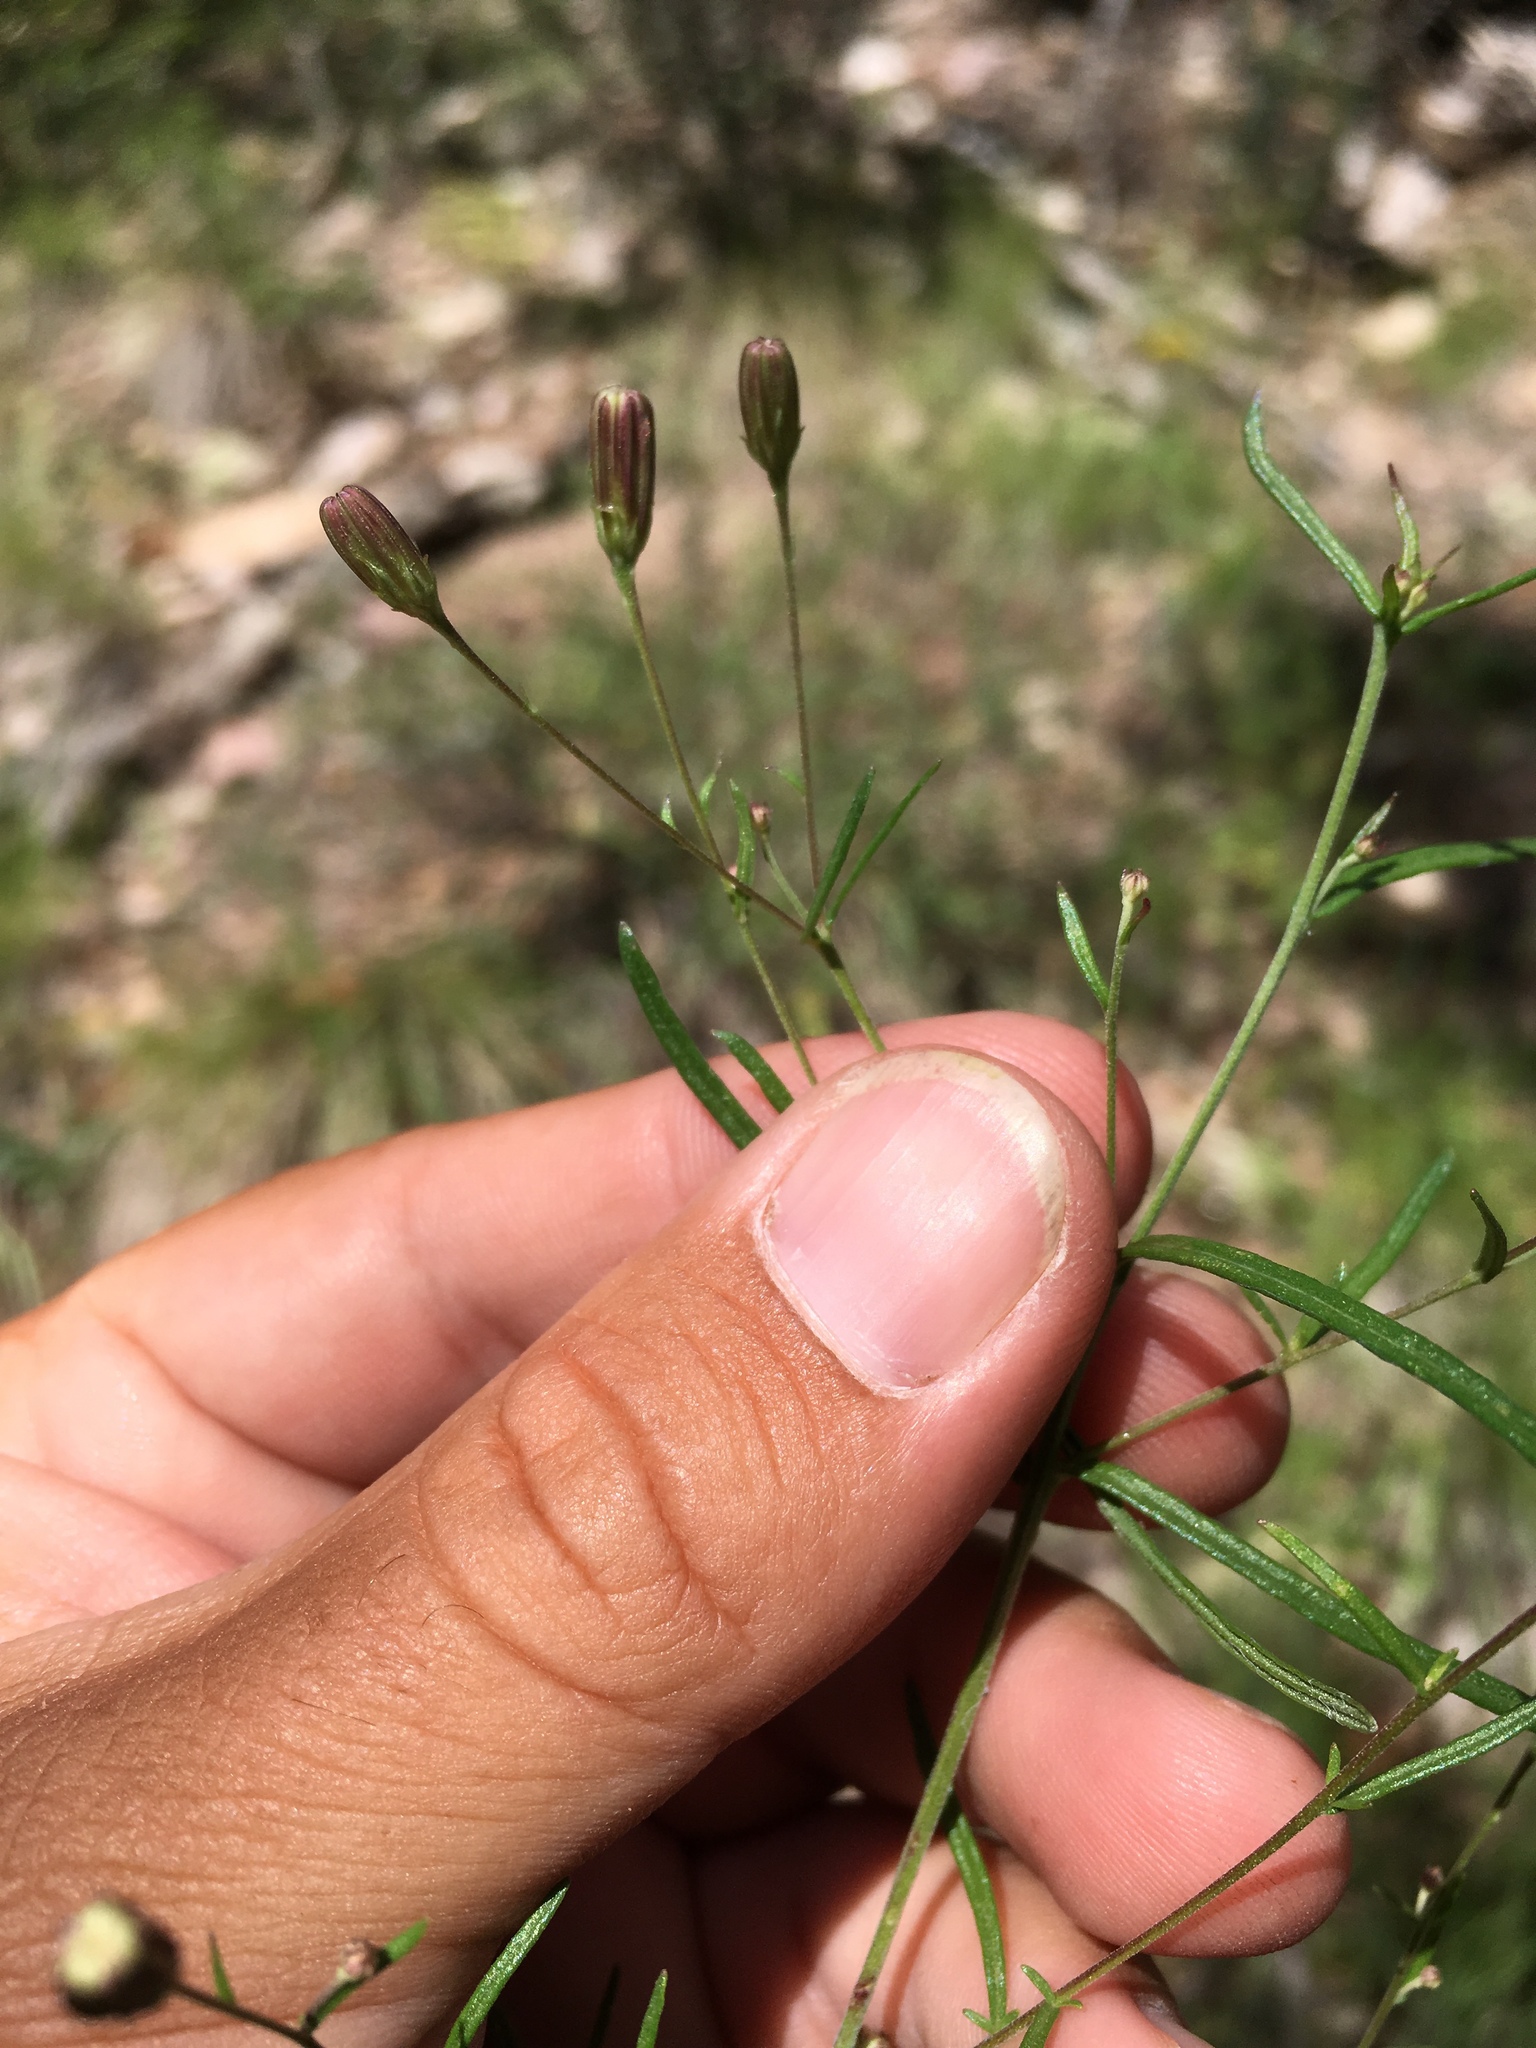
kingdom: Plantae
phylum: Tracheophyta
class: Magnoliopsida
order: Asterales
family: Asteraceae
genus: Brickellia
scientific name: Brickellia eupatorioides
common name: False boneset
